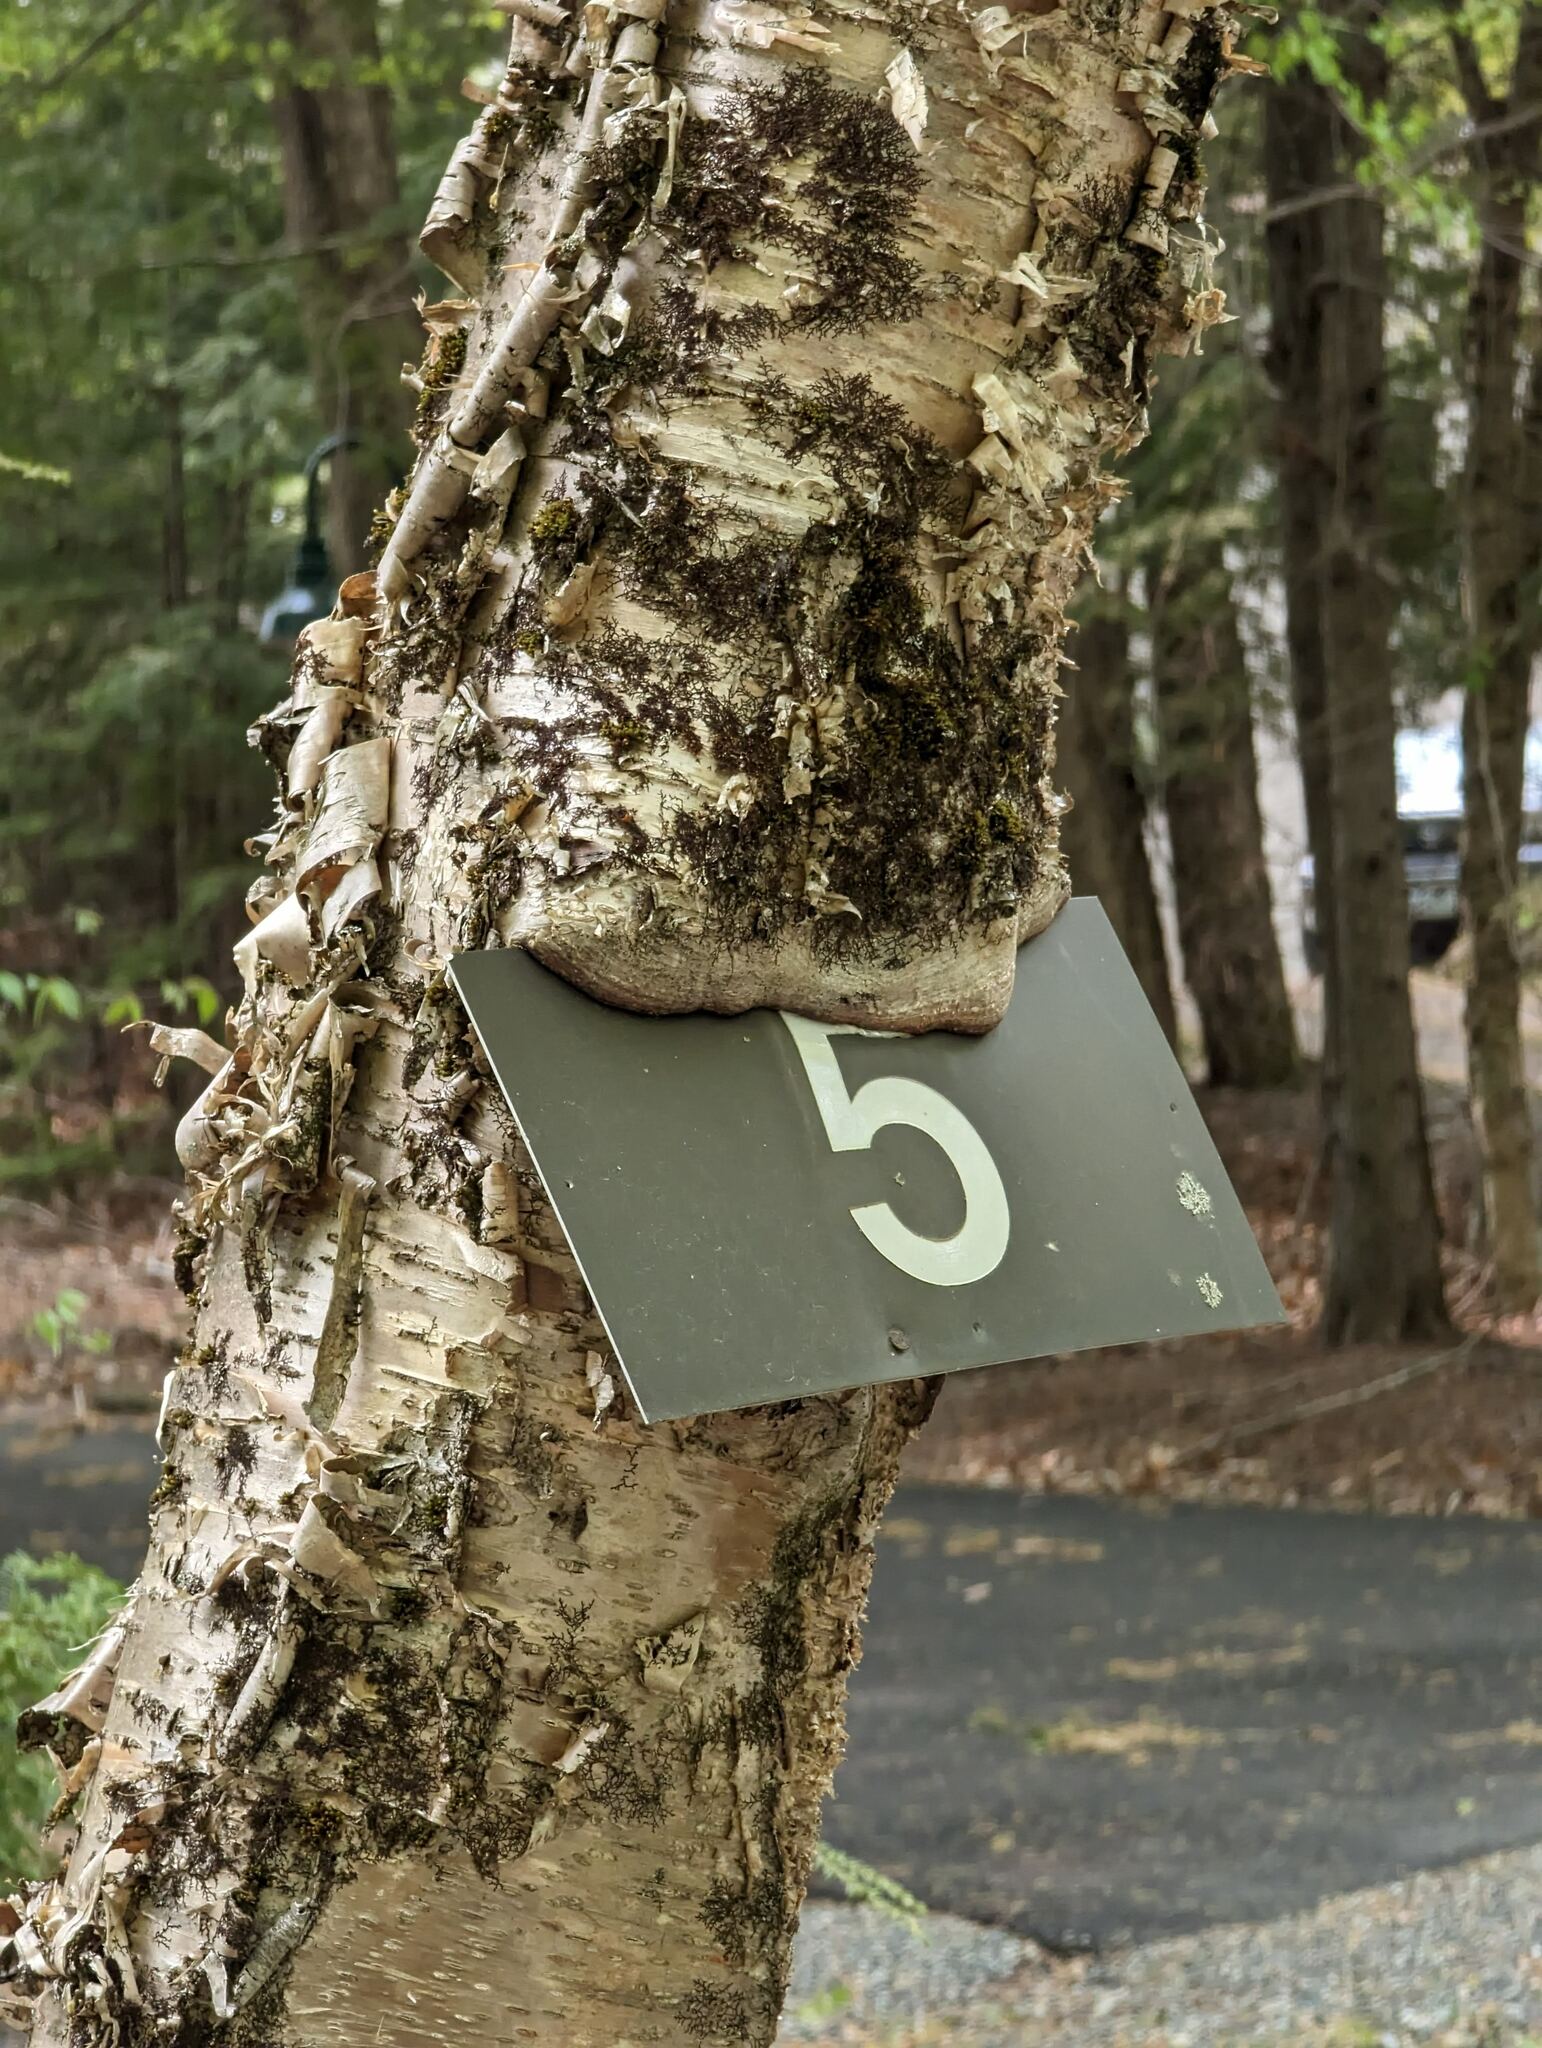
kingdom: Plantae
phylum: Tracheophyta
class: Magnoliopsida
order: Fagales
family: Betulaceae
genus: Betula
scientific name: Betula alleghaniensis
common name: Yellow birch
